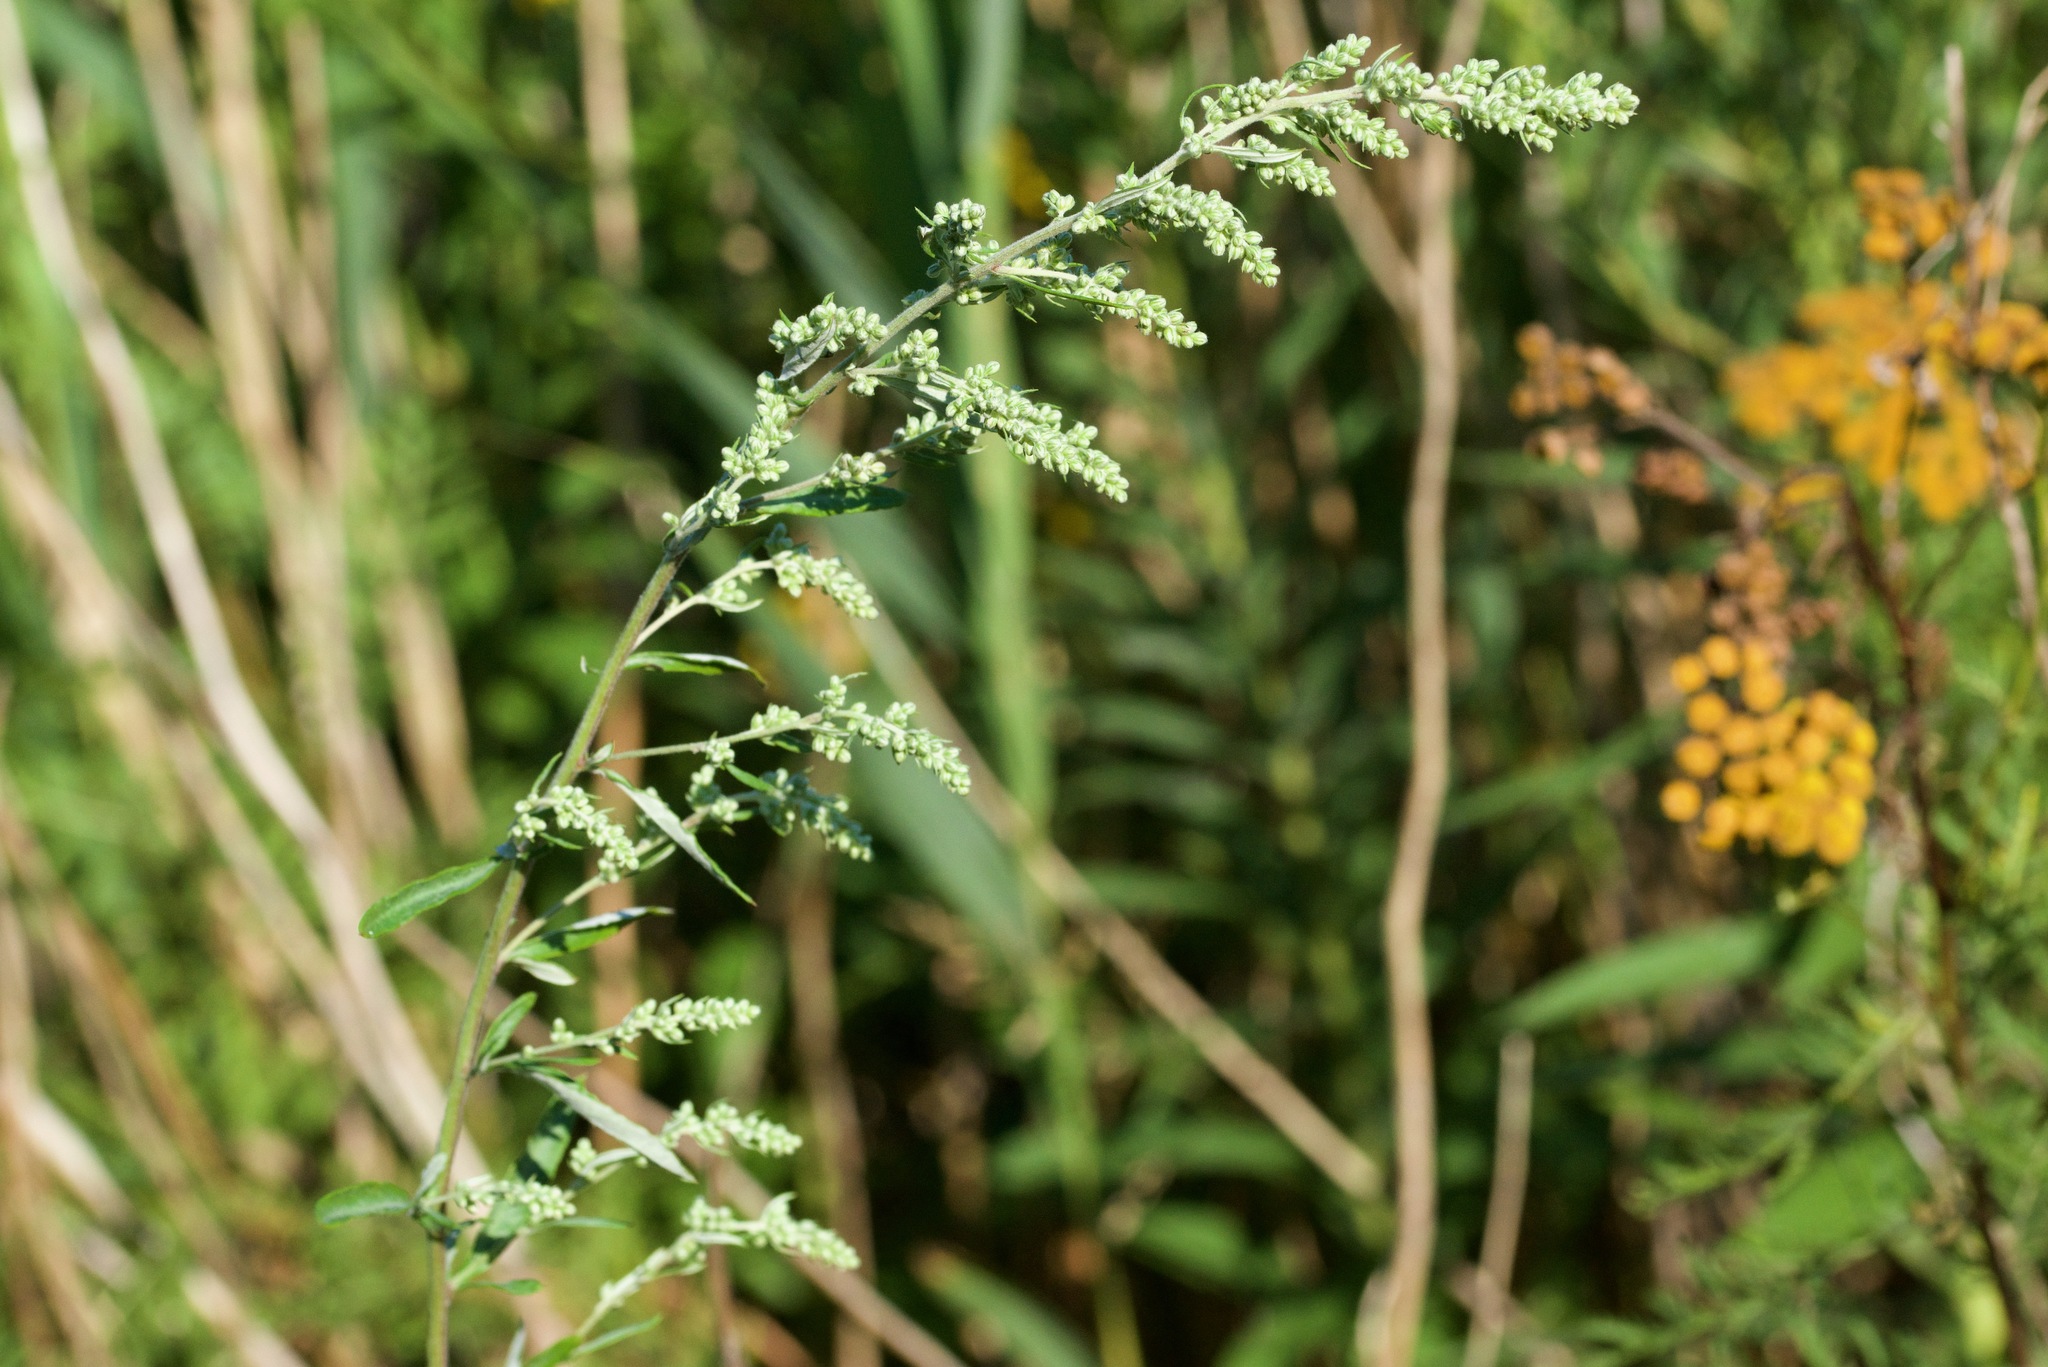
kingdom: Plantae
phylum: Tracheophyta
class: Magnoliopsida
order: Asterales
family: Asteraceae
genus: Artemisia
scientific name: Artemisia vulgaris
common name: Mugwort
